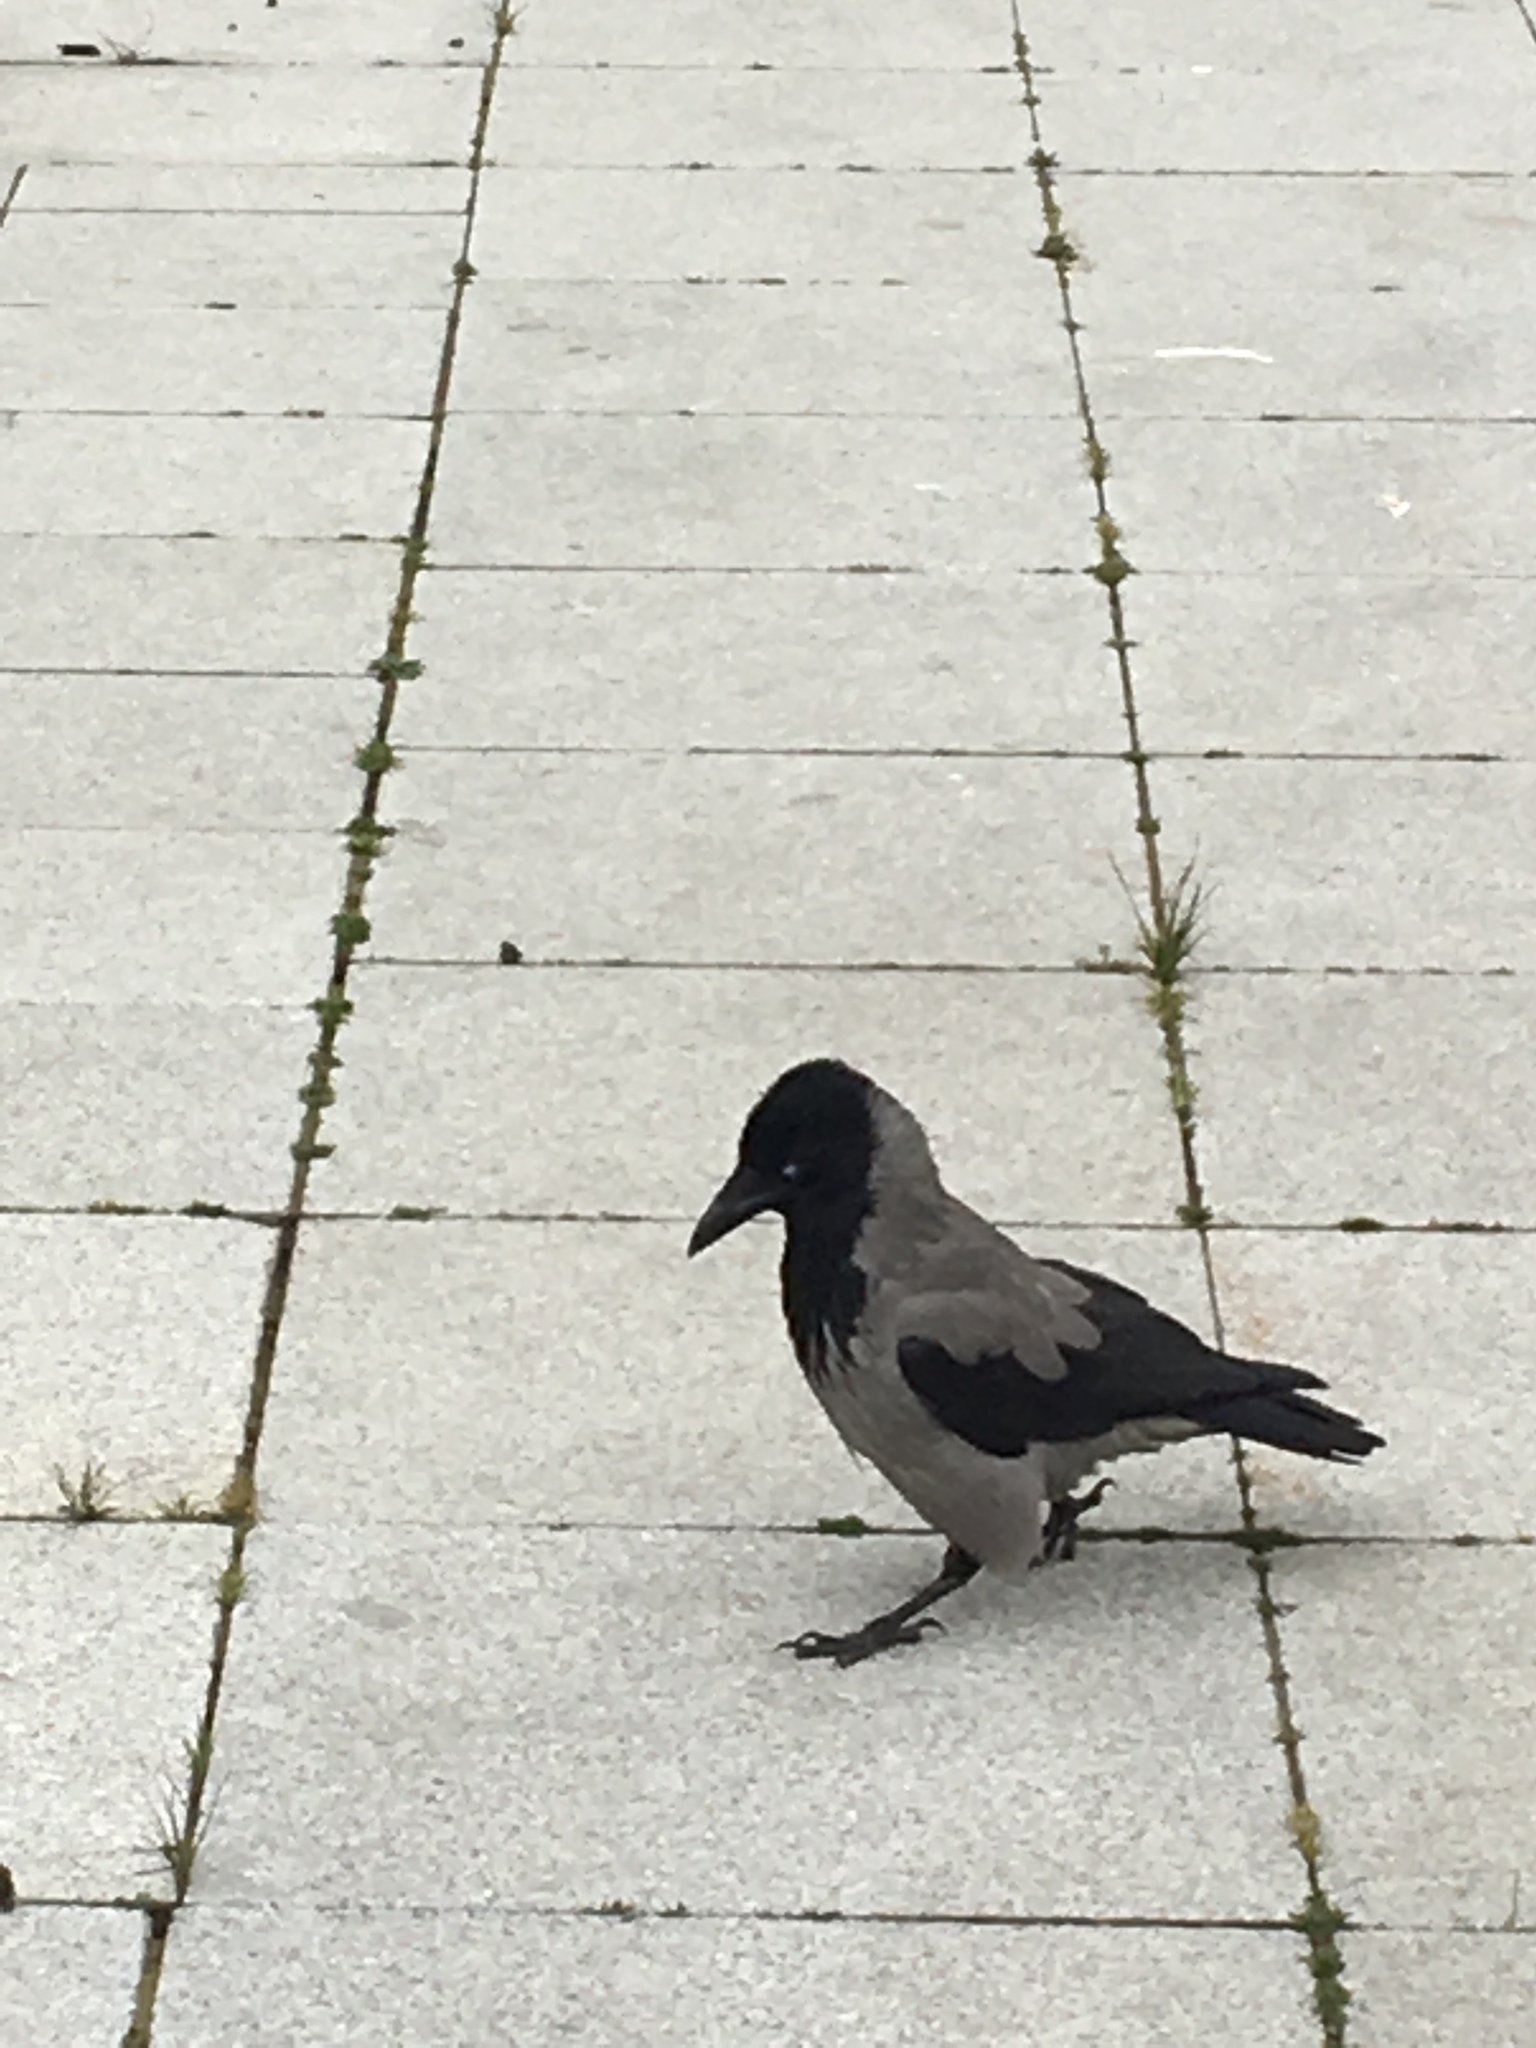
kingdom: Animalia
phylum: Chordata
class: Aves
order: Passeriformes
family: Corvidae
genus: Corvus
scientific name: Corvus cornix
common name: Hooded crow
